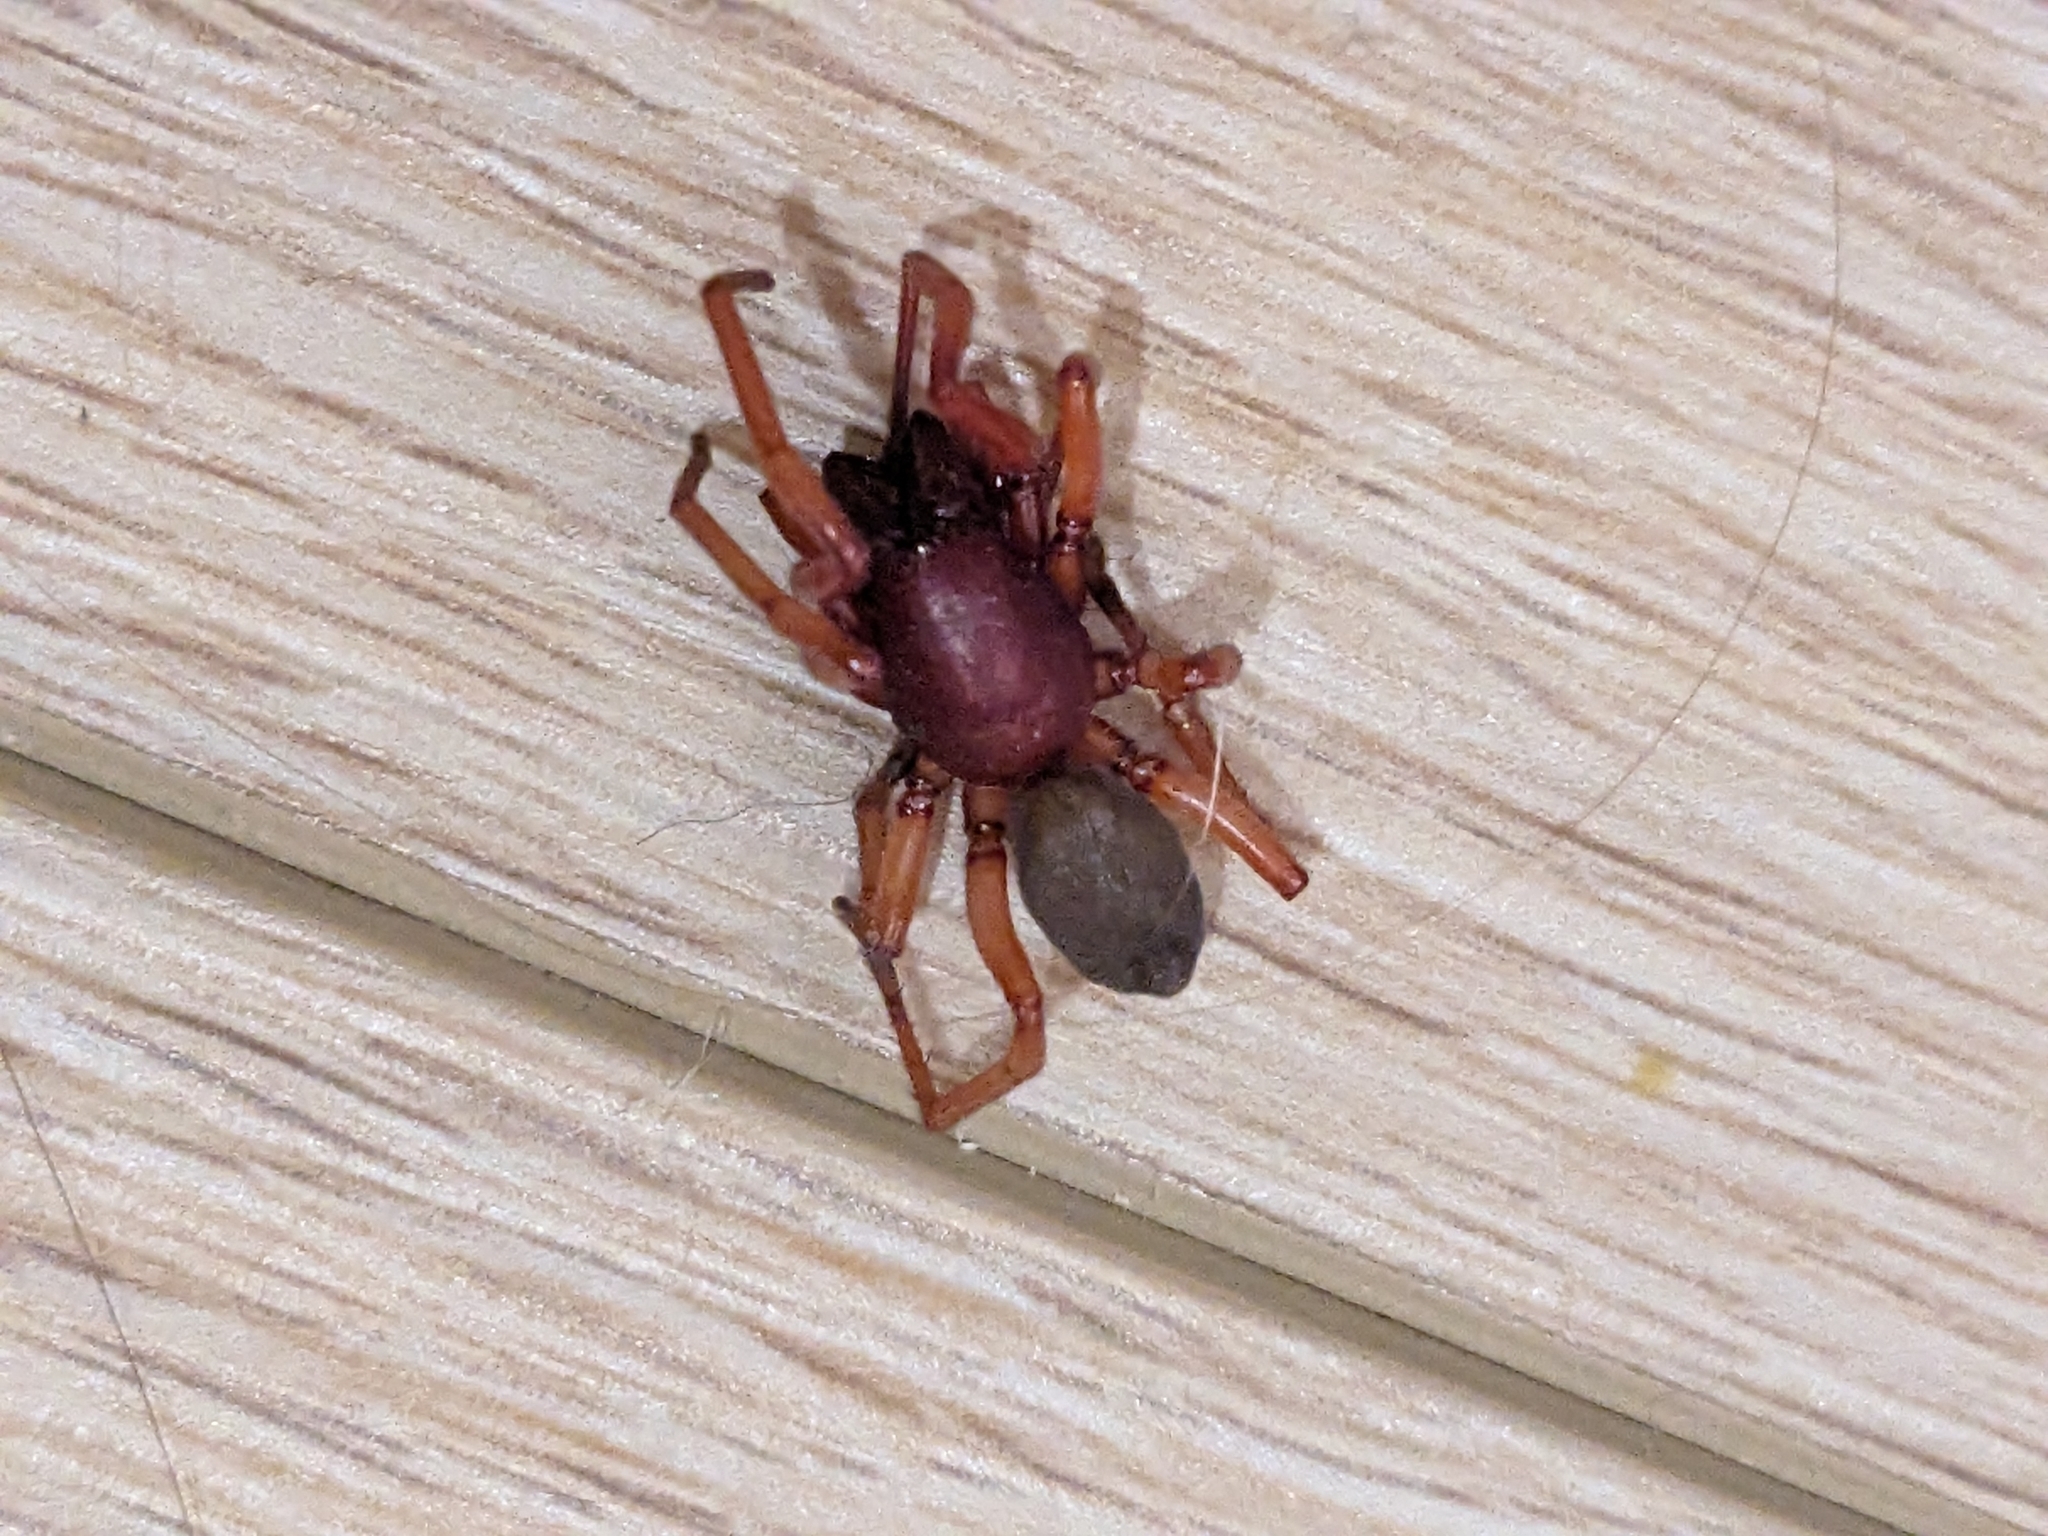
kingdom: Animalia
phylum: Arthropoda
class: Arachnida
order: Araneae
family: Dysderidae
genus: Dysdera
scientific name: Dysdera crocata
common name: Woodlouse spider
